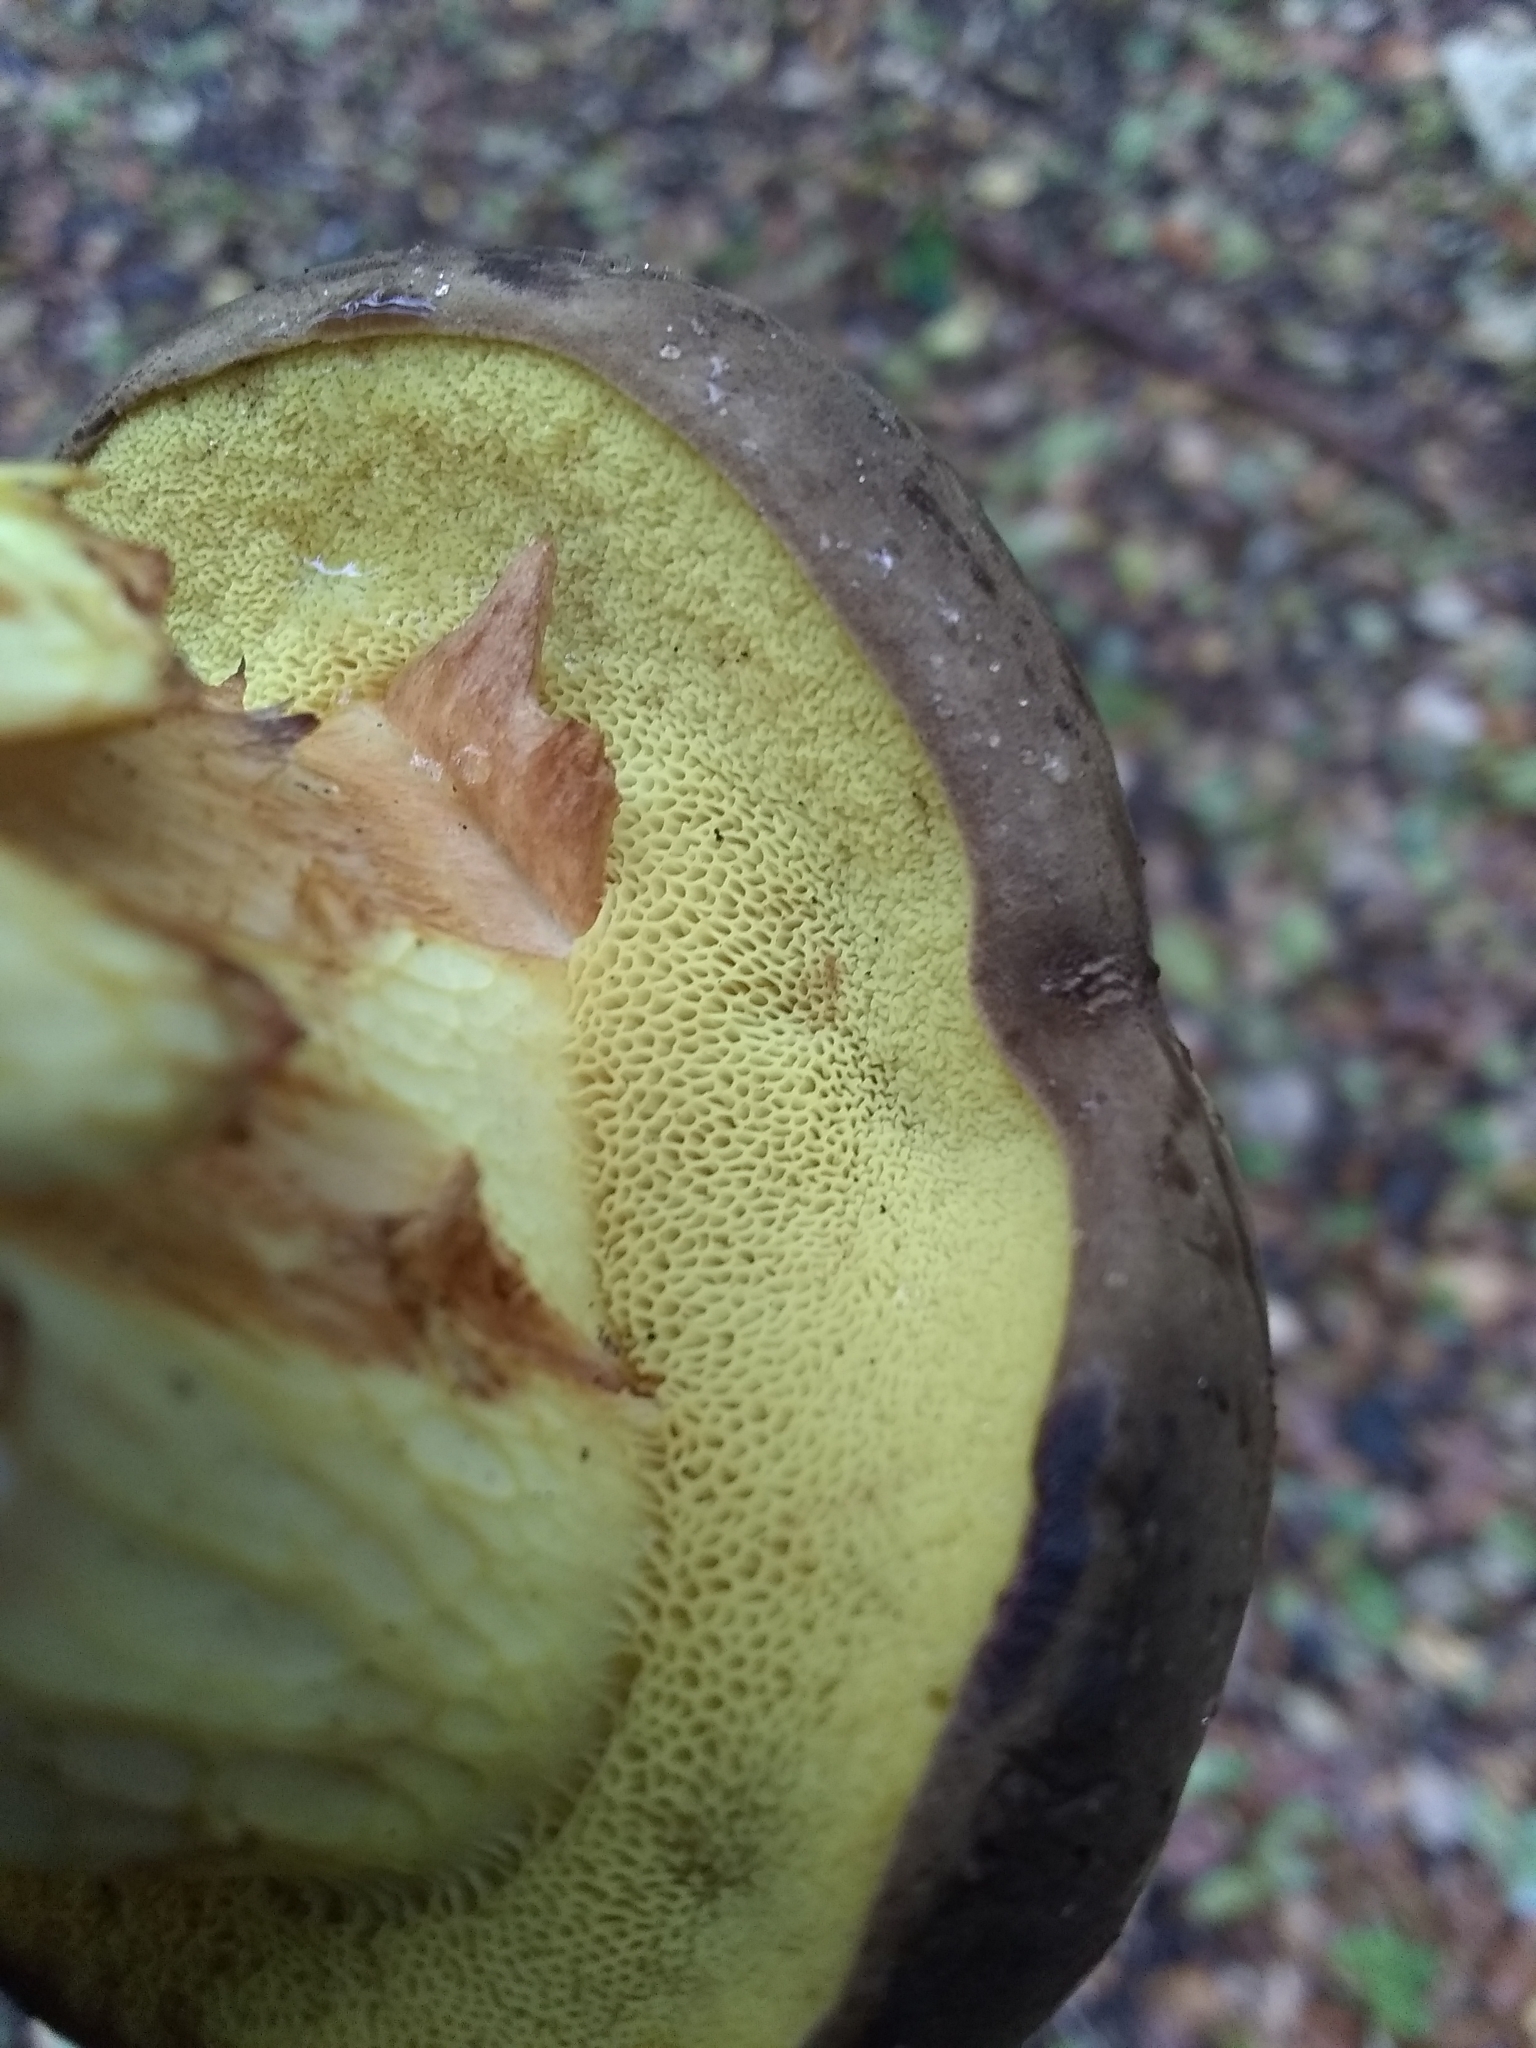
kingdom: Fungi
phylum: Basidiomycota
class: Agaricomycetes
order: Boletales
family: Boletaceae
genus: Xerocomus
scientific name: Xerocomus subtomentosus
